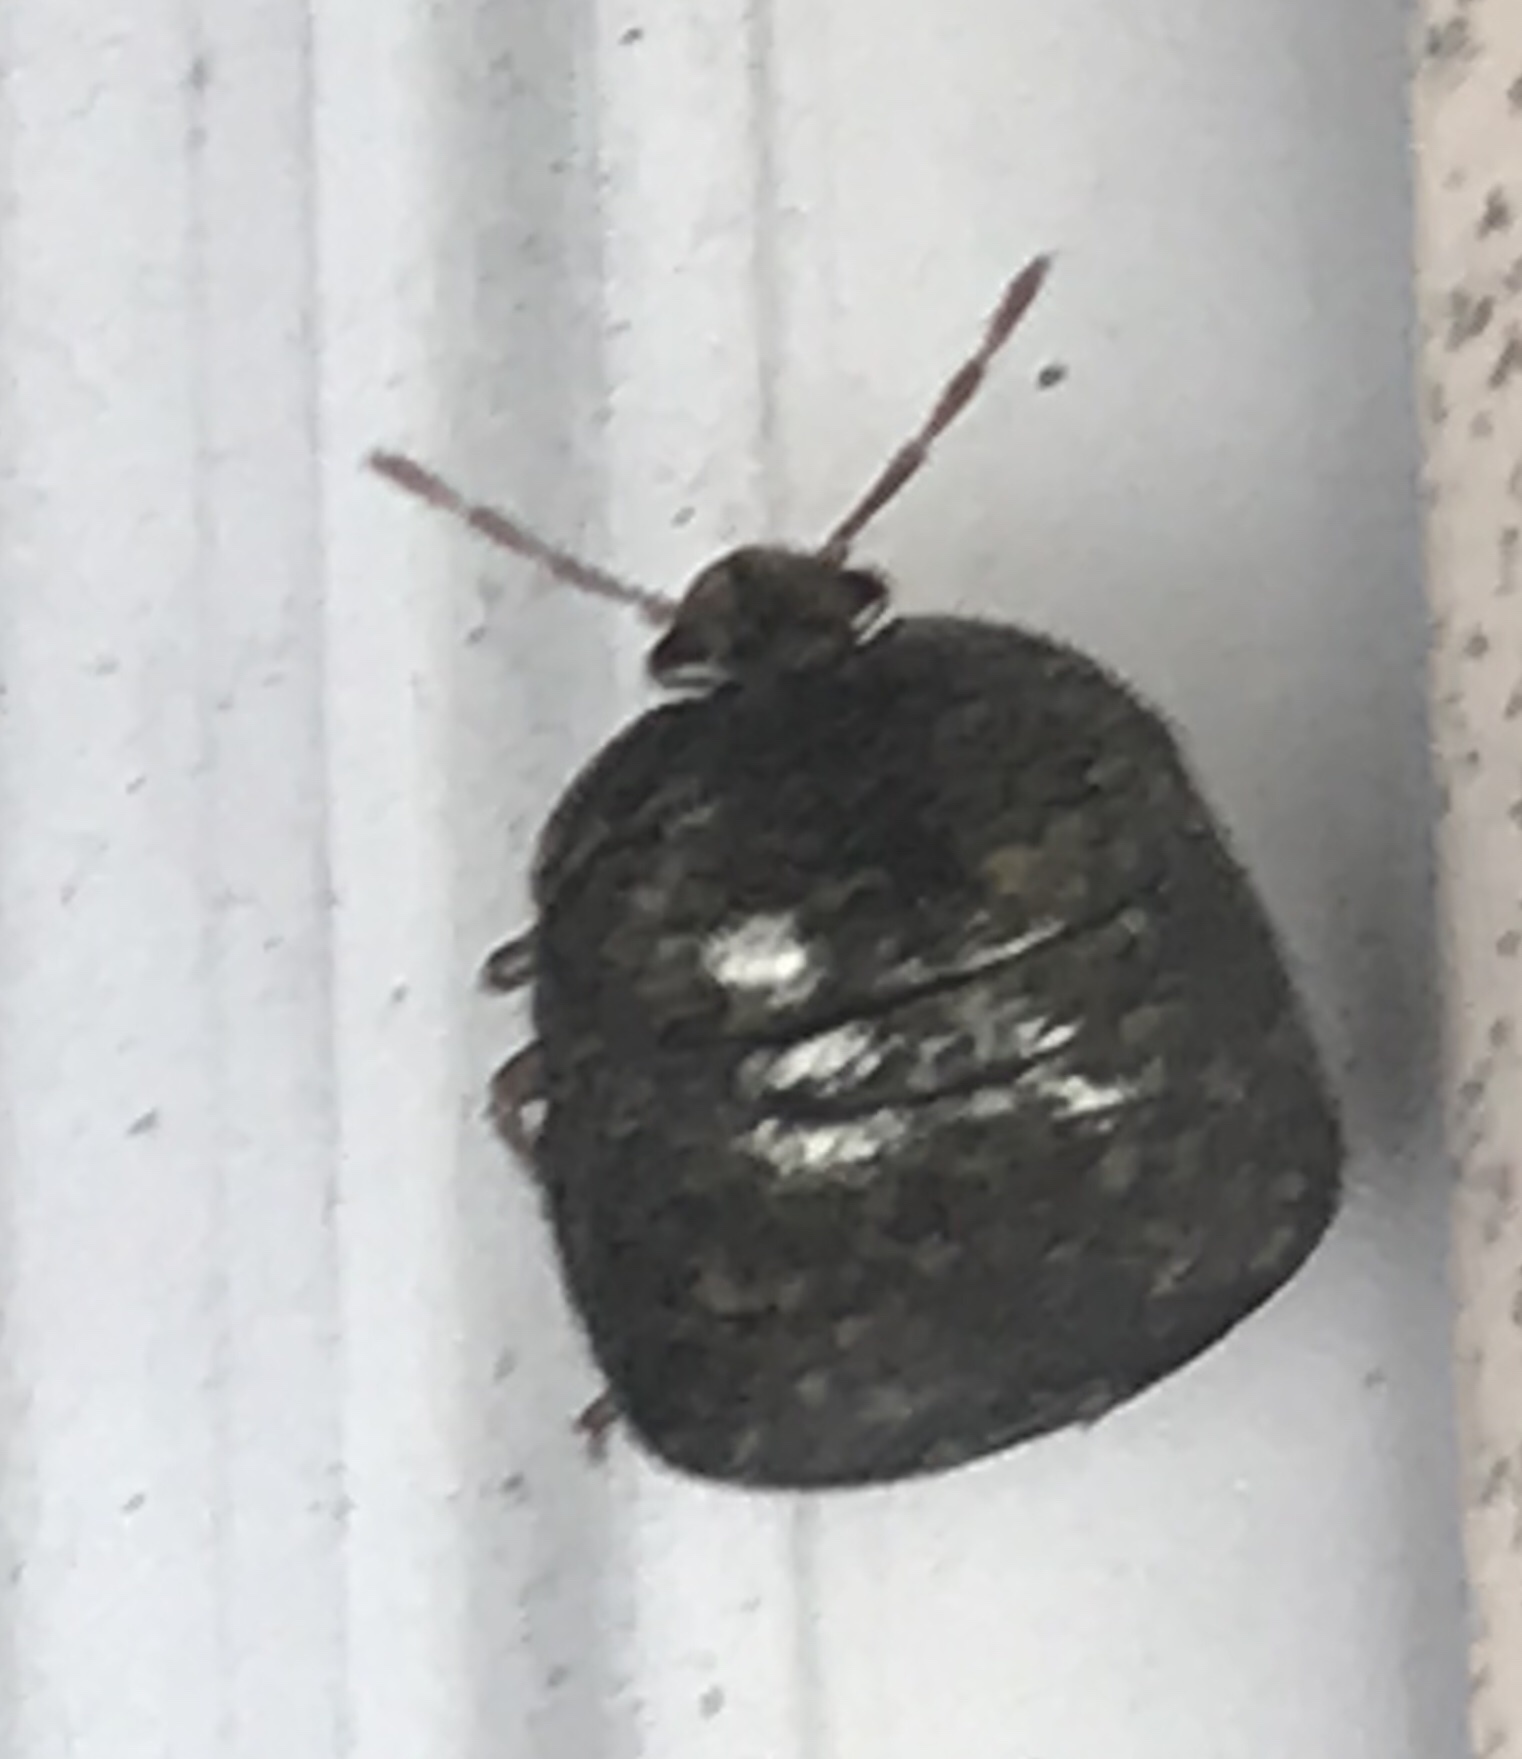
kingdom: Animalia
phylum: Arthropoda
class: Insecta
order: Hemiptera
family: Plataspidae
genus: Megacopta
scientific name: Megacopta cribraria
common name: Bean plataspid
